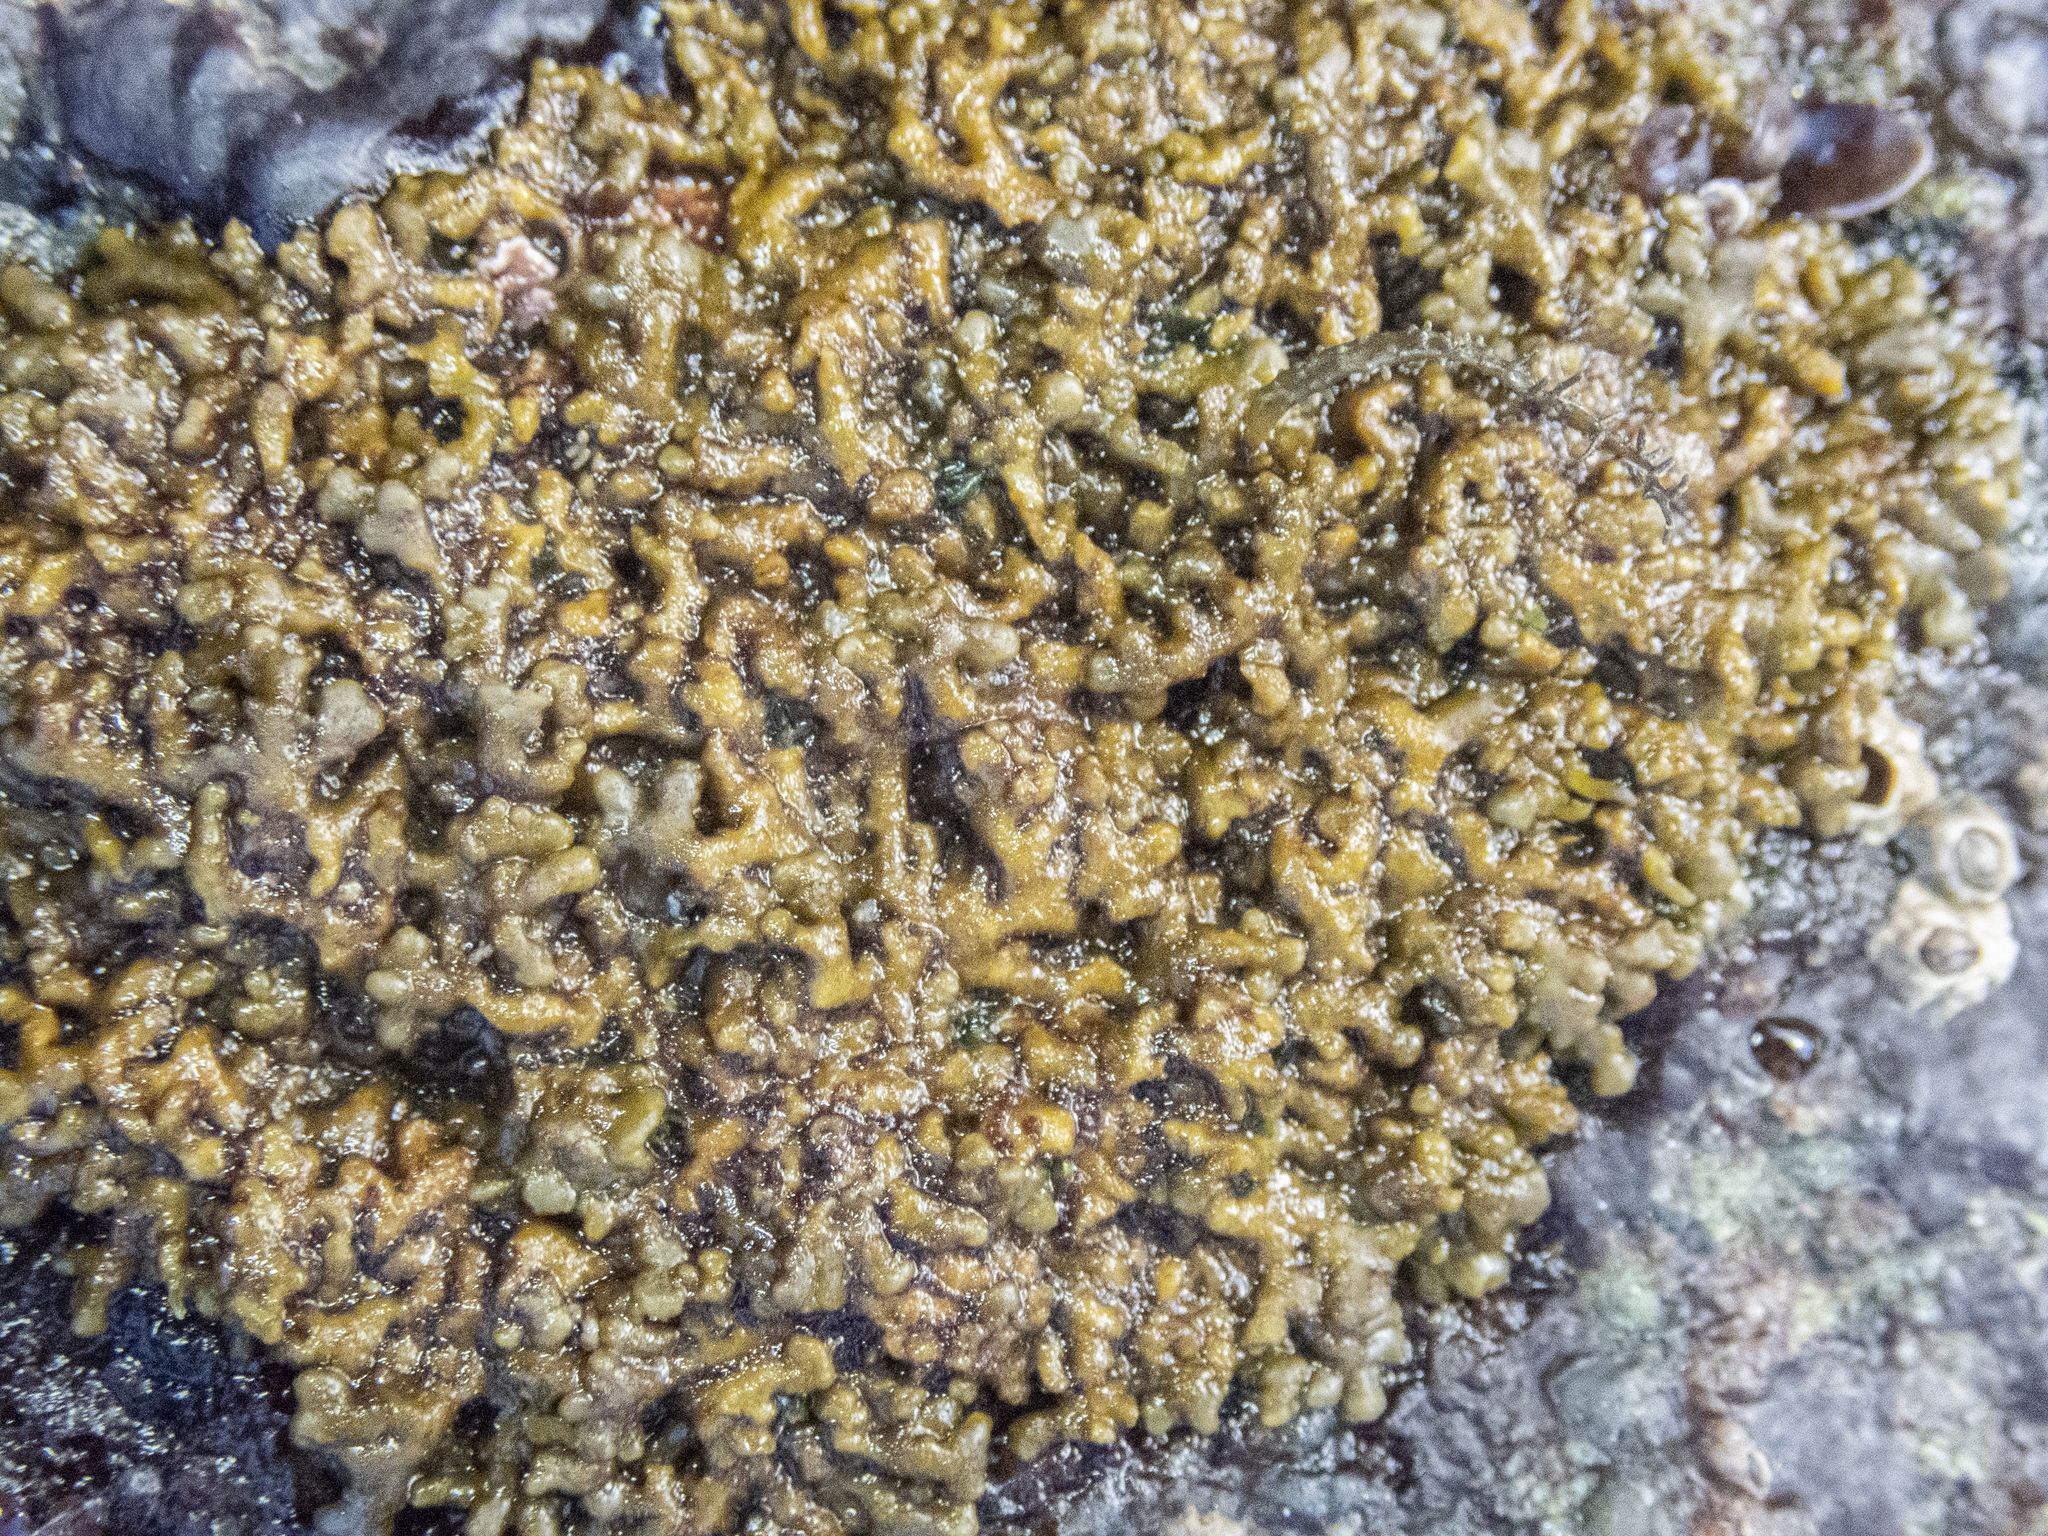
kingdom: Chromista
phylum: Ochrophyta
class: Phaeophyceae
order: Scytosiphonales
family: Scytosiphonaceae
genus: Analipus
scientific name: Analipus japonicus
